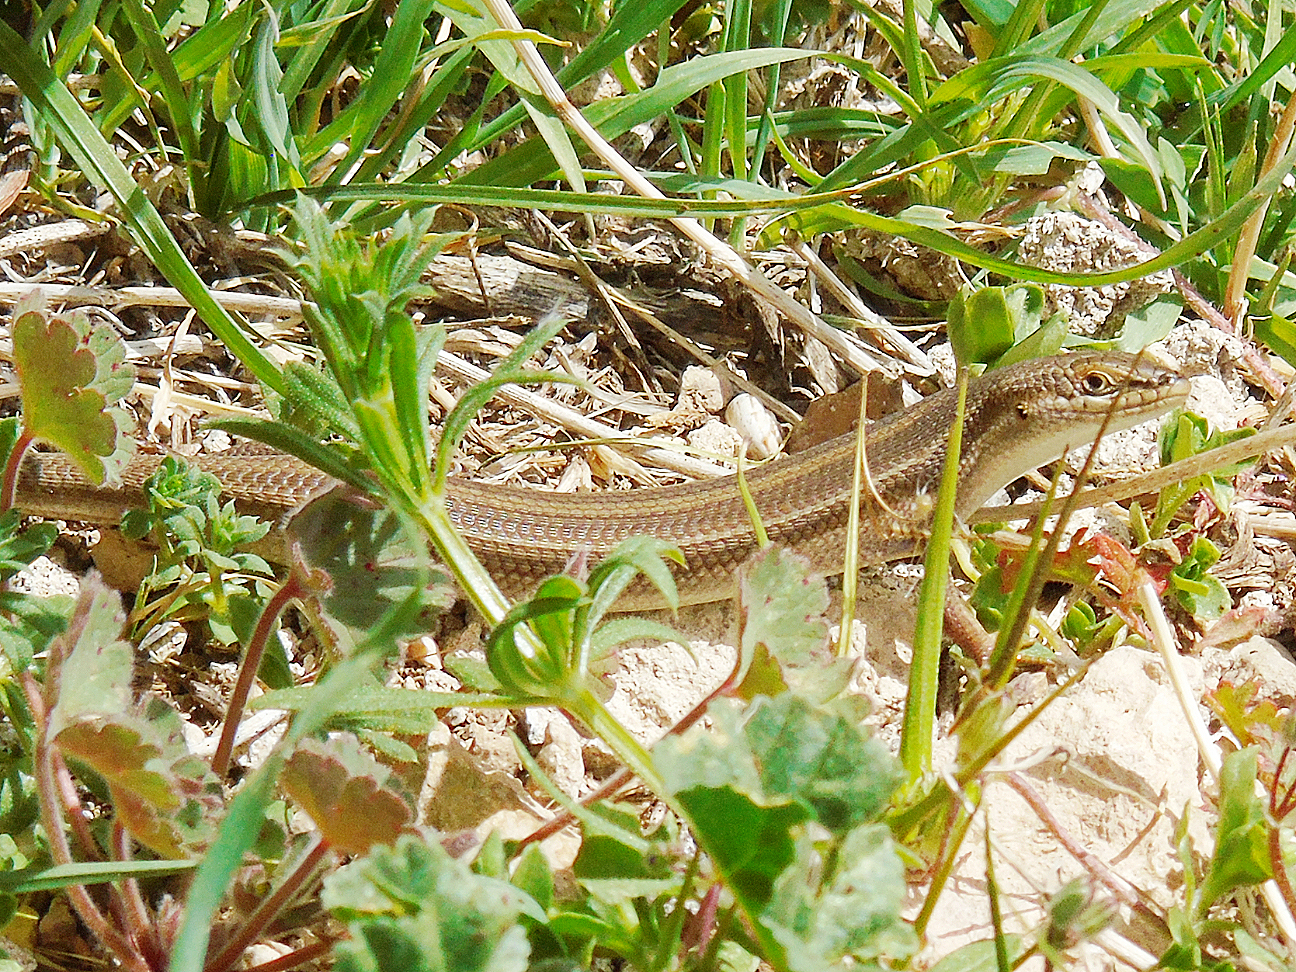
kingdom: Animalia
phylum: Chordata
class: Squamata
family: Scincidae
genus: Heremites
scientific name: Heremites vittatus
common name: Bridled mabuya
